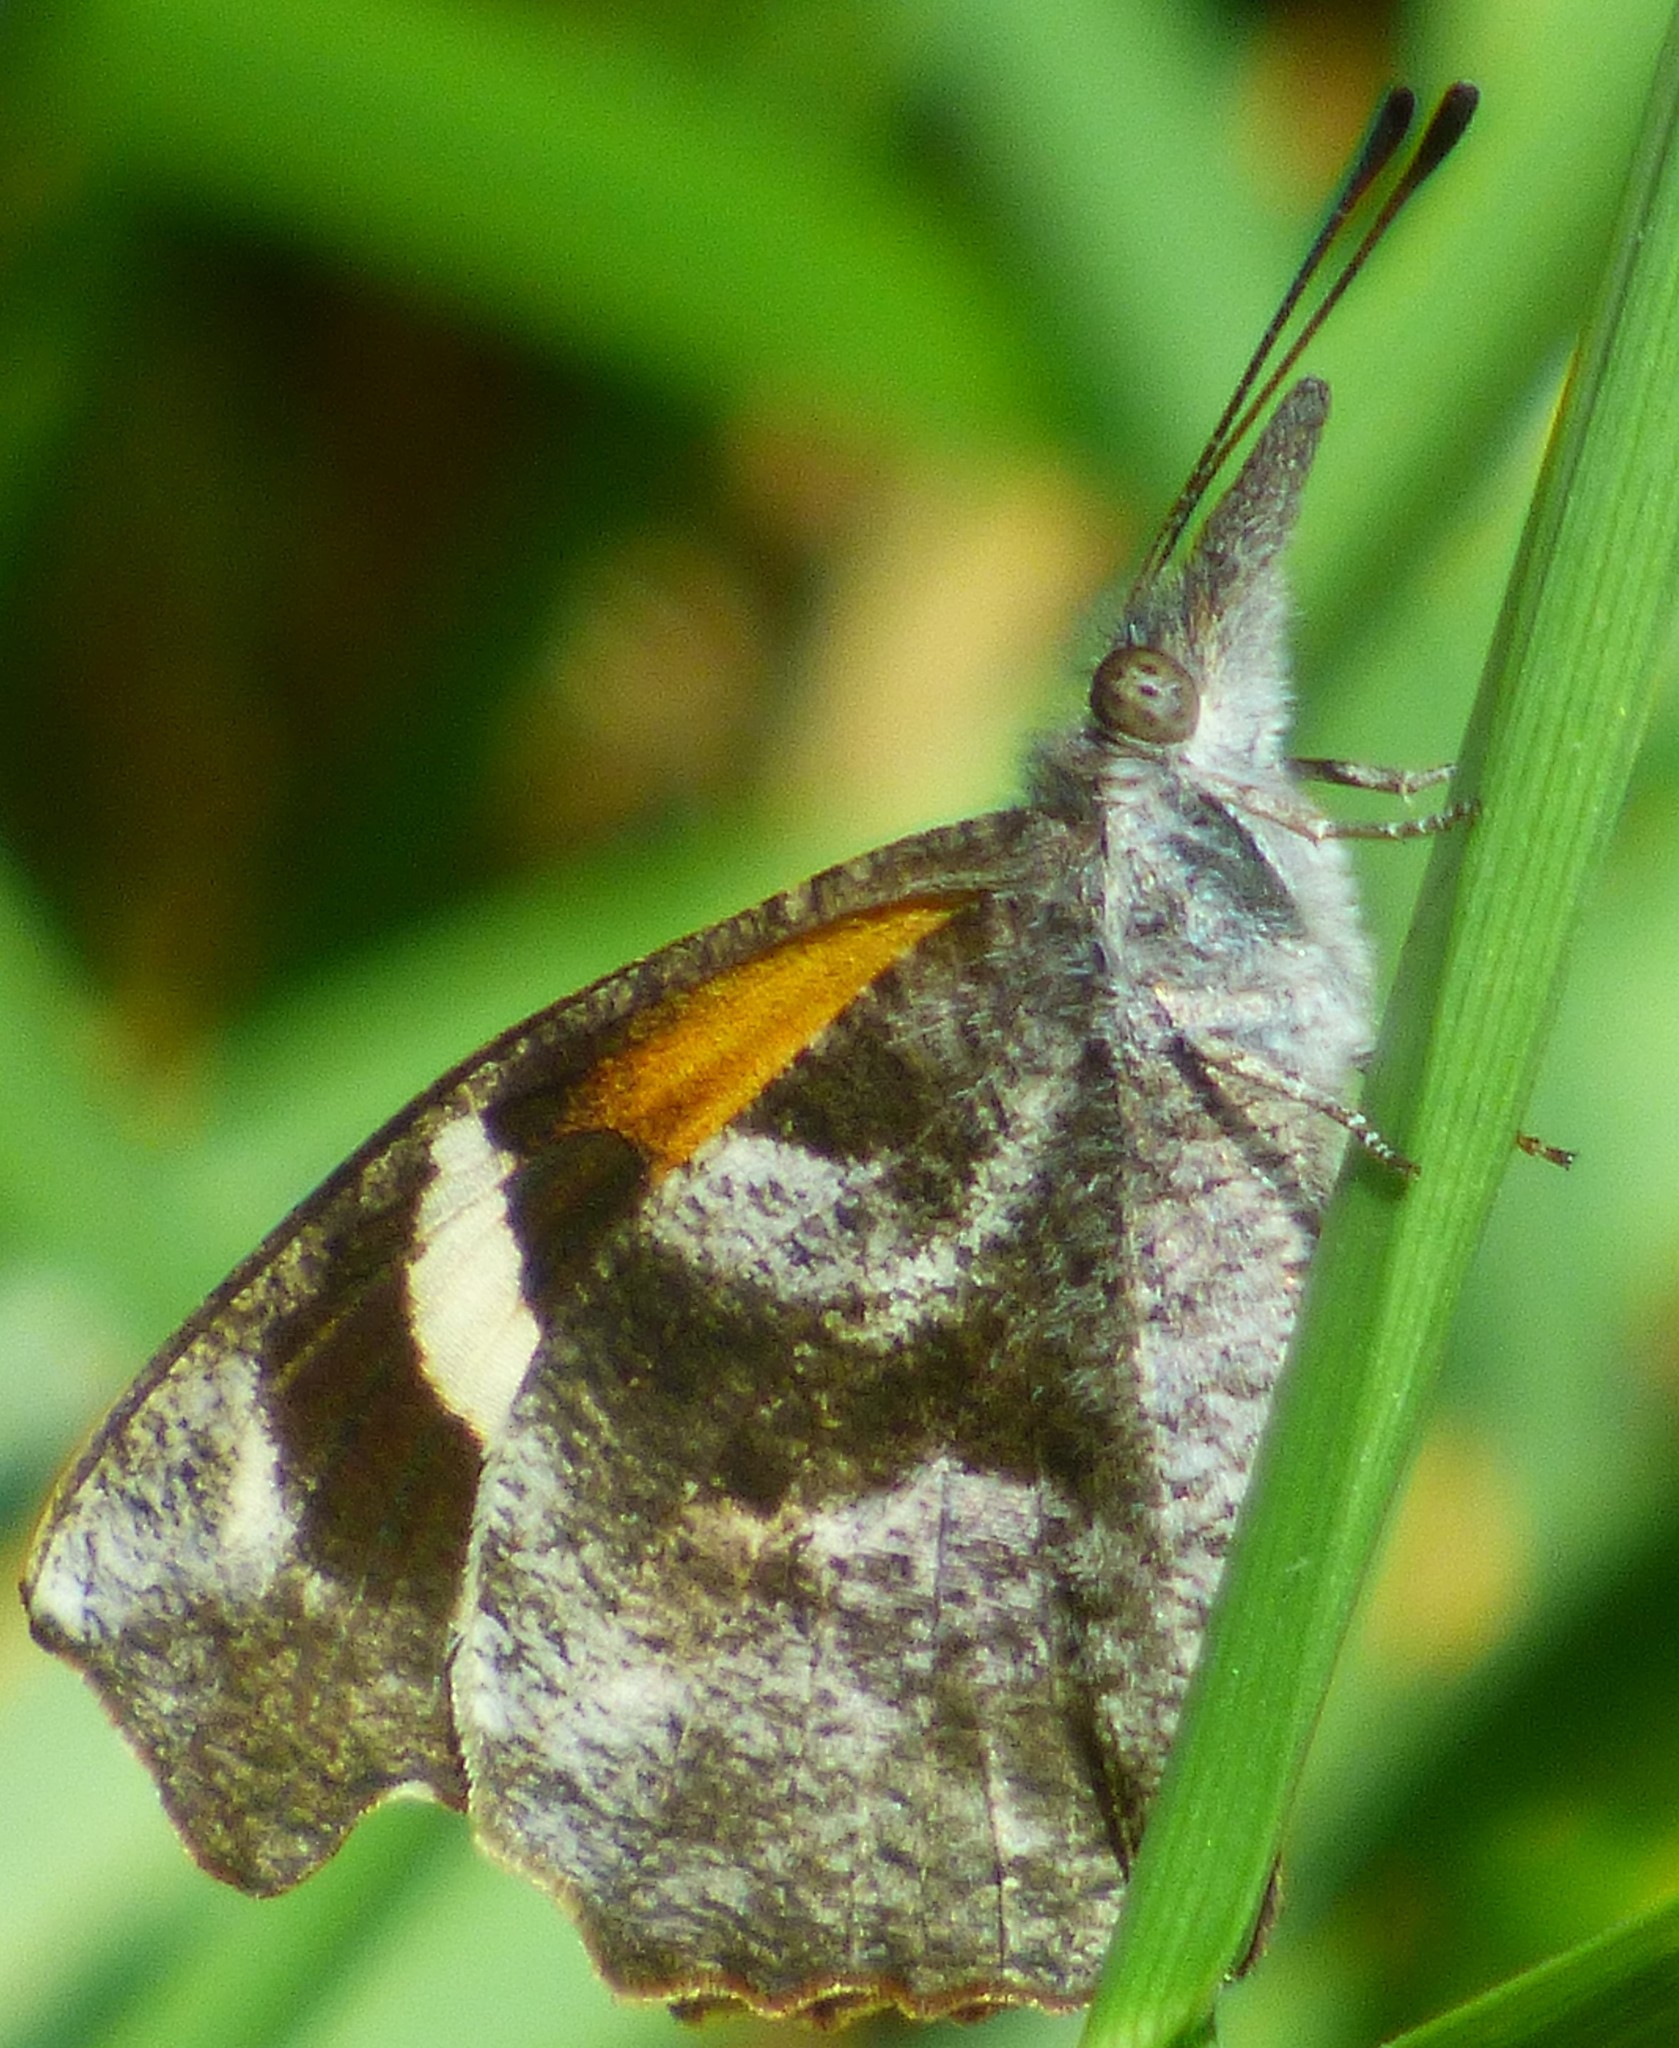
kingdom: Animalia
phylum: Arthropoda
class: Insecta
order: Lepidoptera
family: Nymphalidae
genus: Libytheana
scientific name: Libytheana carinenta
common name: American snout
